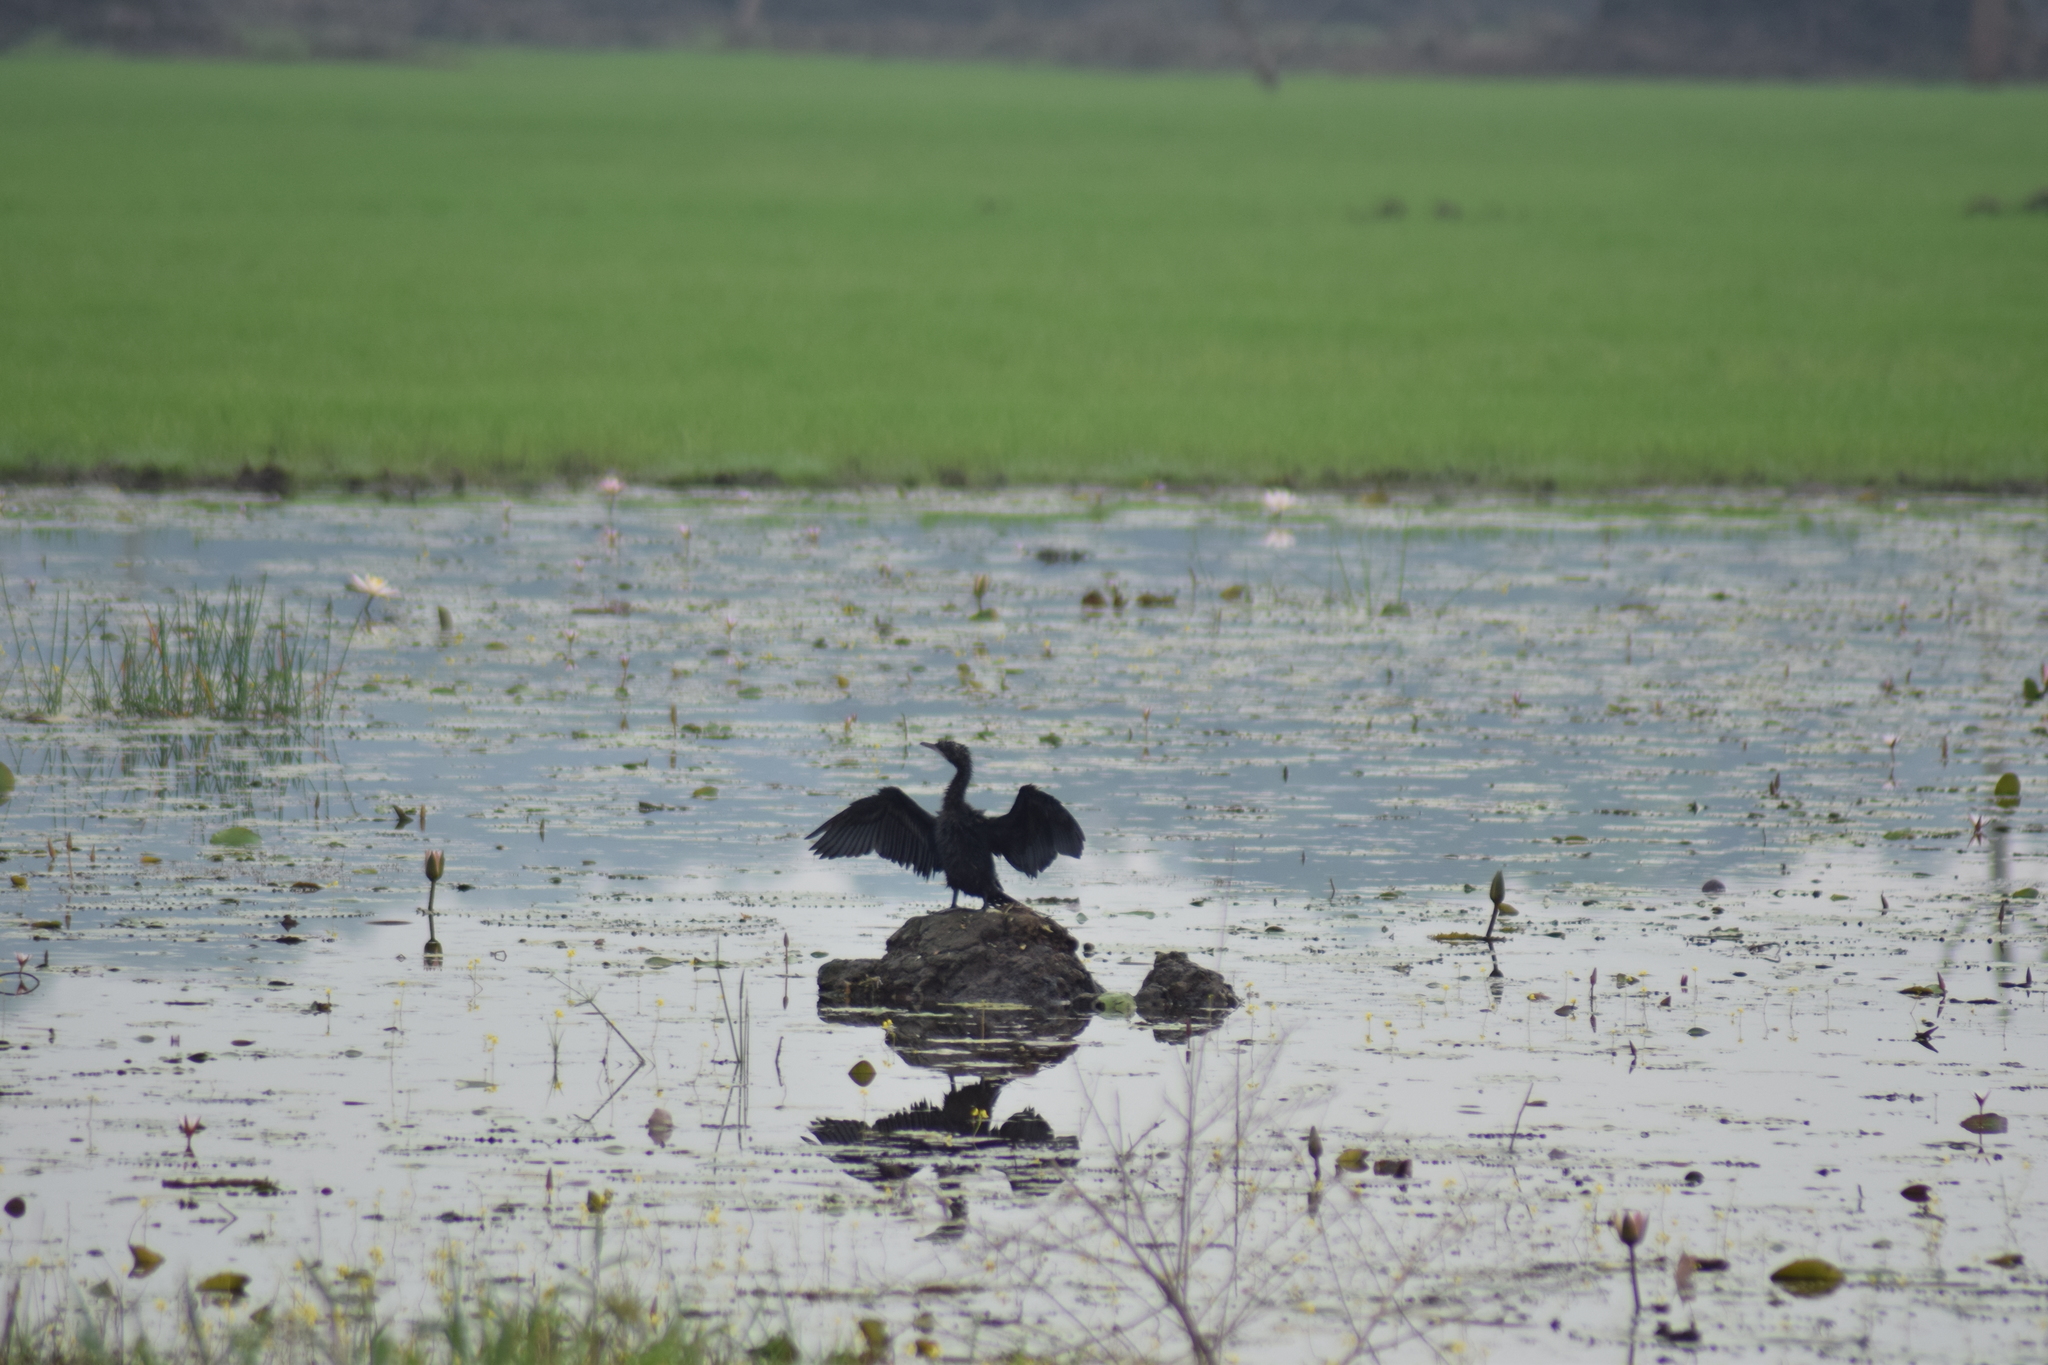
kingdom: Animalia
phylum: Chordata
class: Aves
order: Suliformes
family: Phalacrocoracidae
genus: Microcarbo
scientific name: Microcarbo niger
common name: Little cormorant
